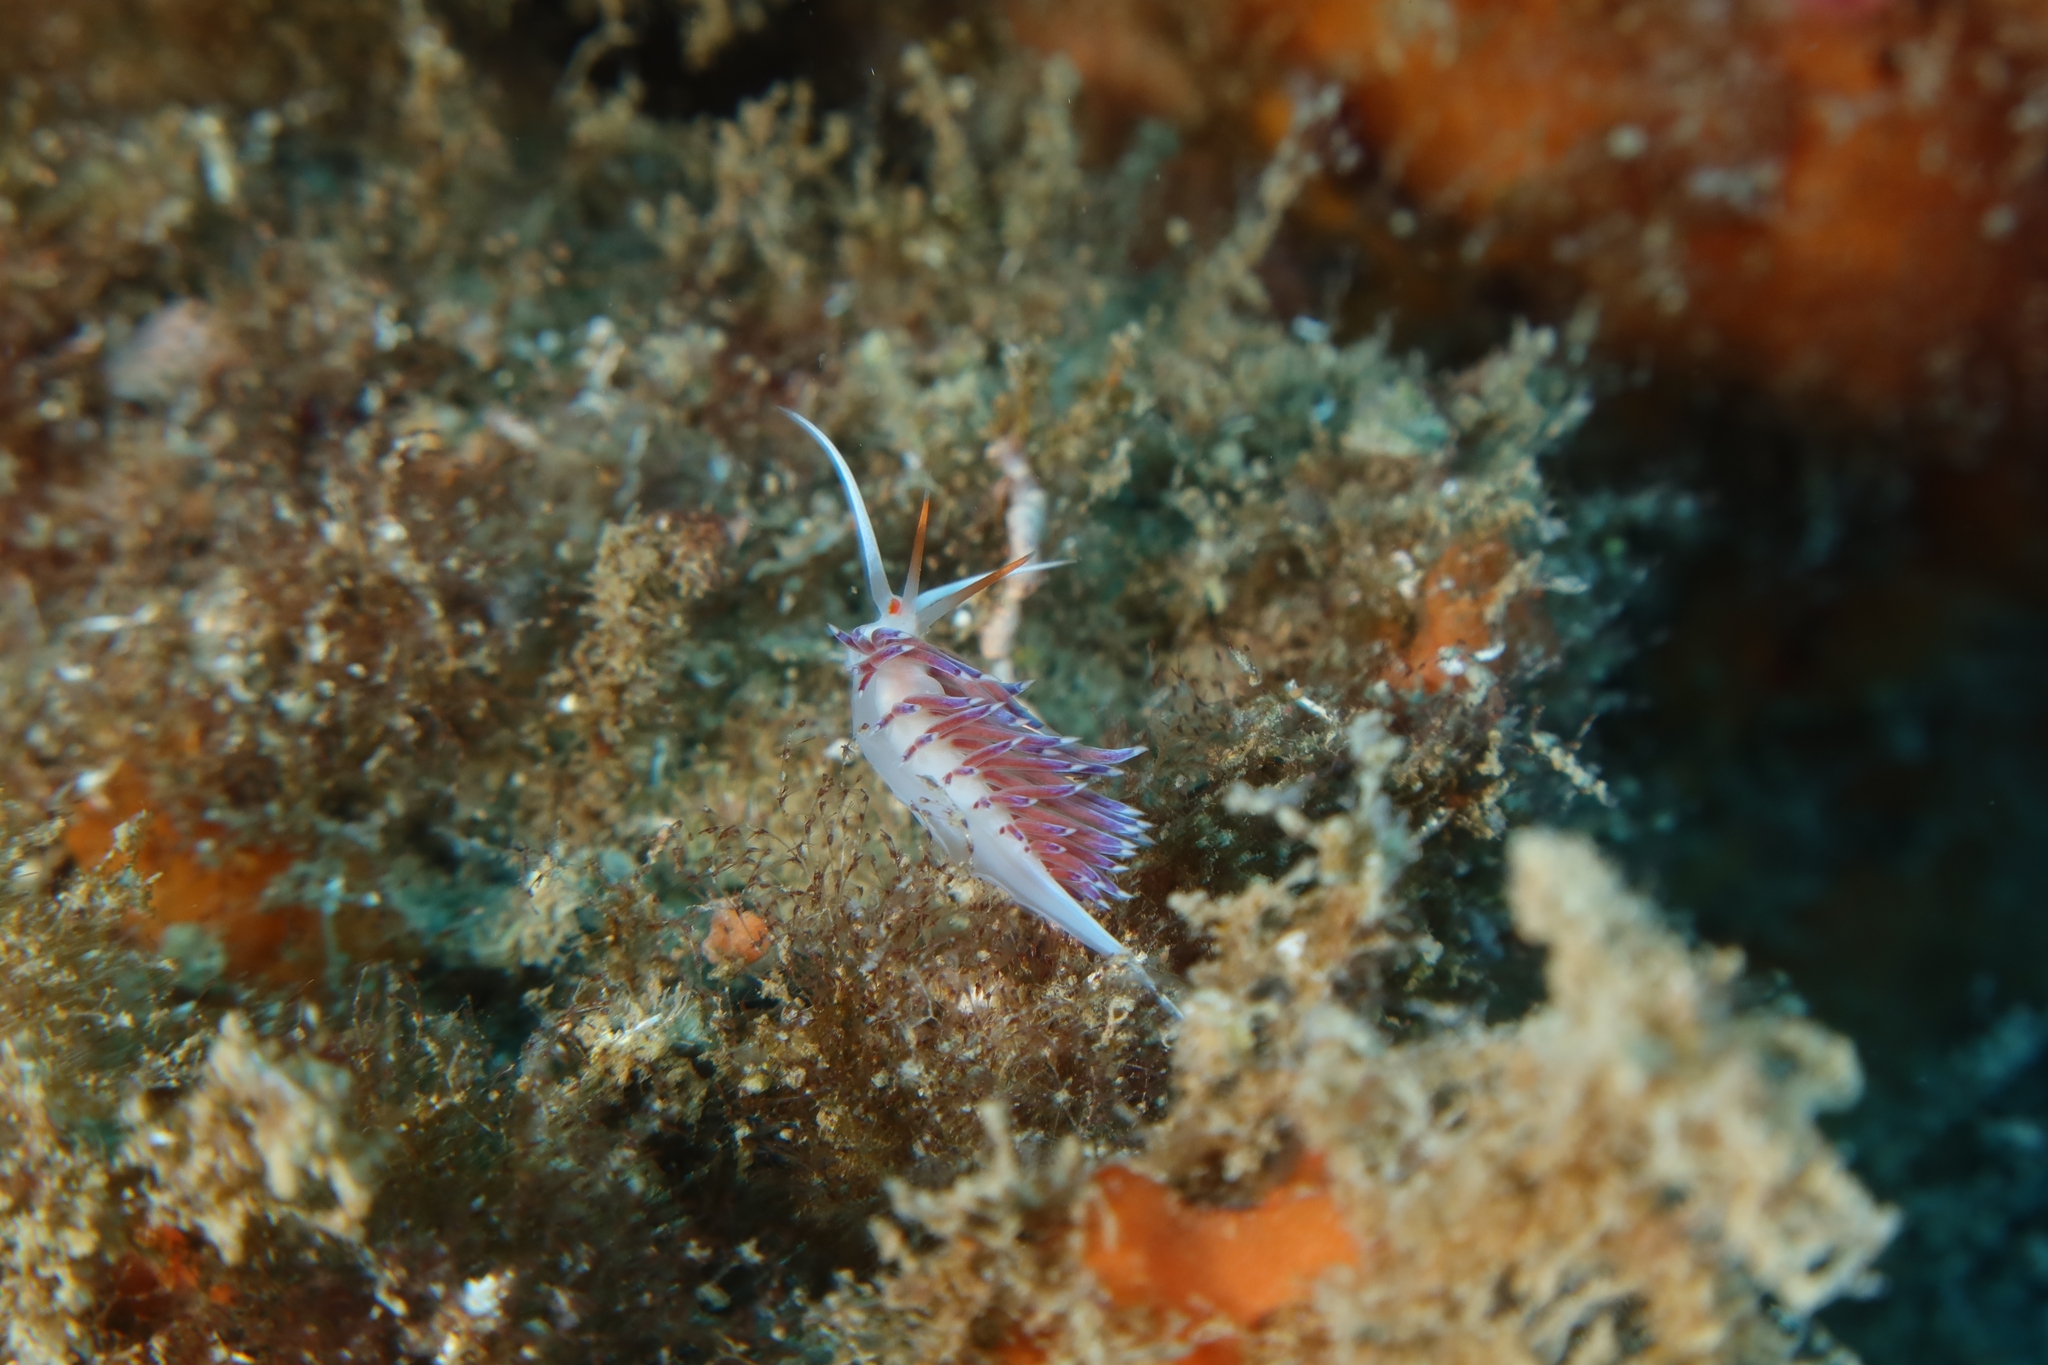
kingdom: Animalia
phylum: Mollusca
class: Gastropoda
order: Nudibranchia
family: Facelinidae
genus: Cratena
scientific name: Cratena peregrina
